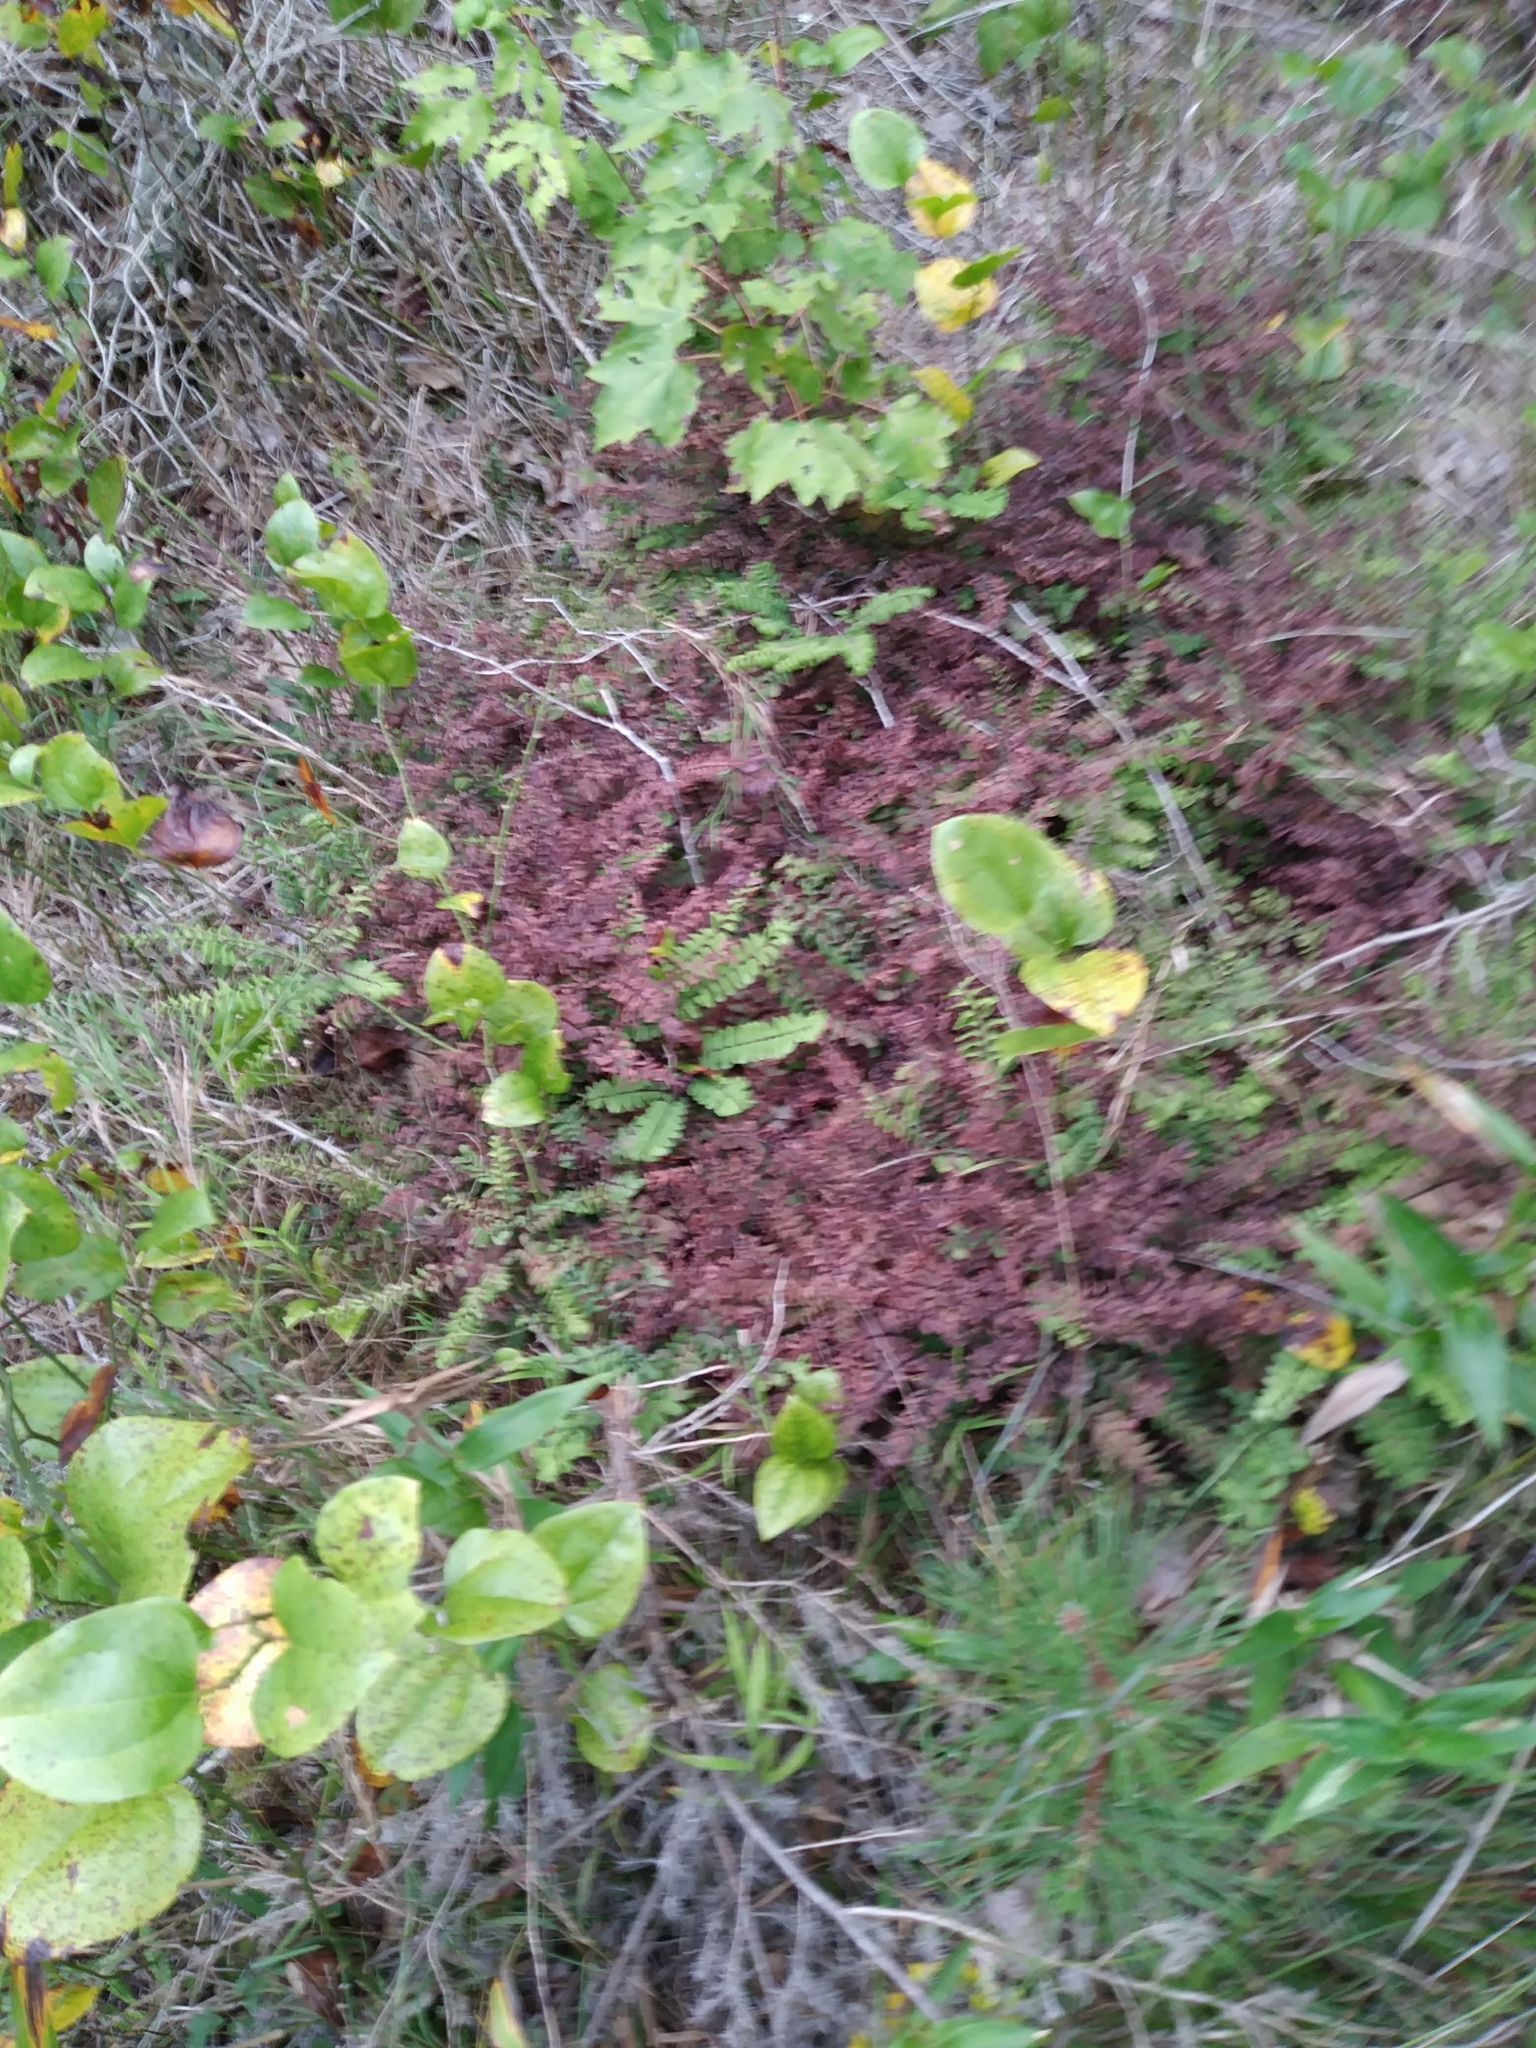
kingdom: Plantae
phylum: Tracheophyta
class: Polypodiopsida
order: Polypodiales
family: Pteridaceae
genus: Adiantum
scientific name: Adiantum pedatum
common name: Five-finger fern
